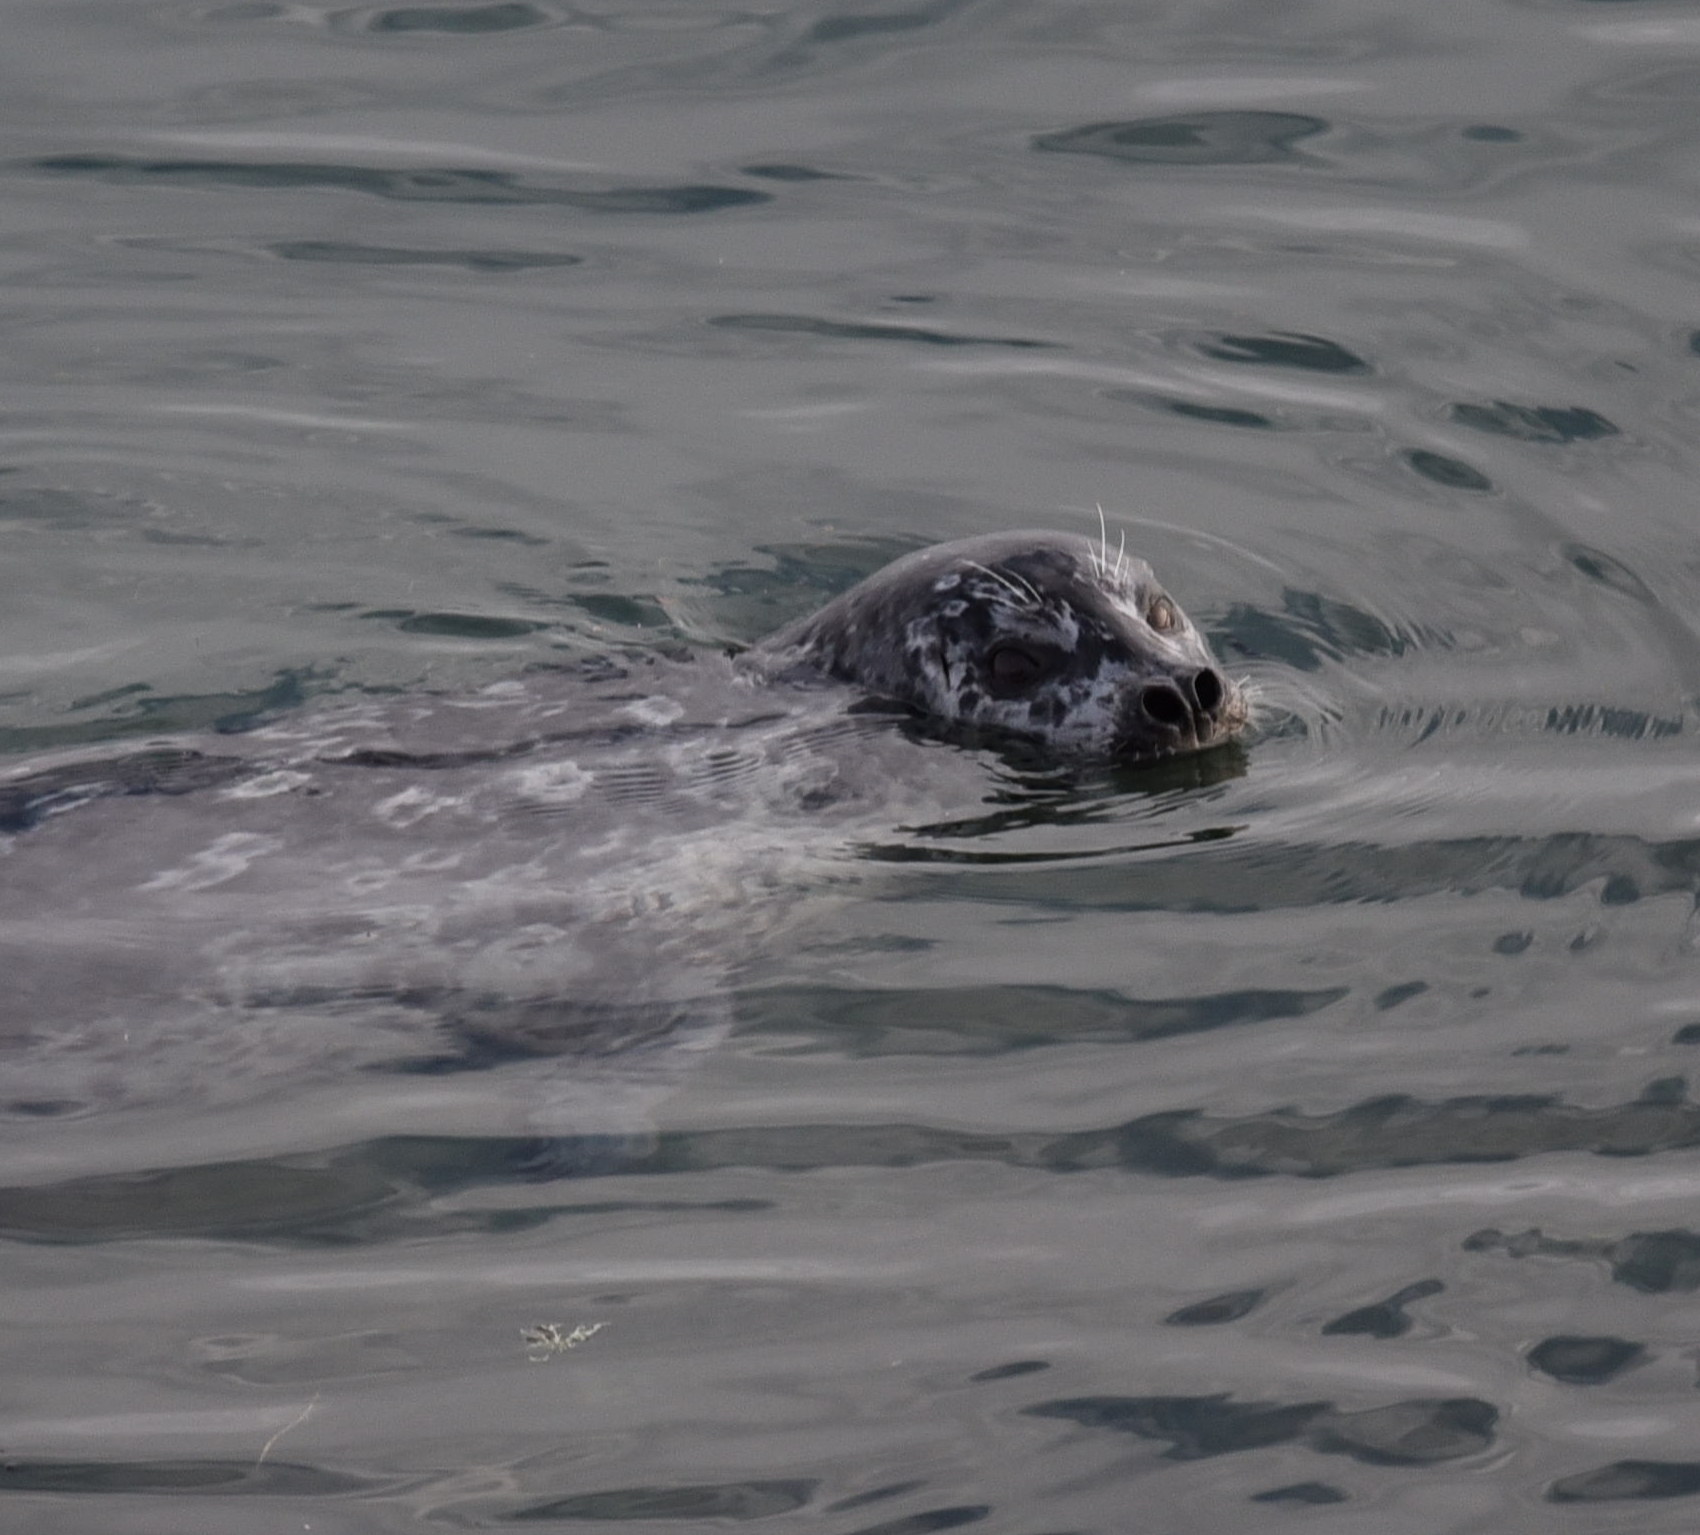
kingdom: Animalia
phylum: Chordata
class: Mammalia
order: Carnivora
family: Phocidae
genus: Phoca
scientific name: Phoca vitulina
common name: Harbor seal
